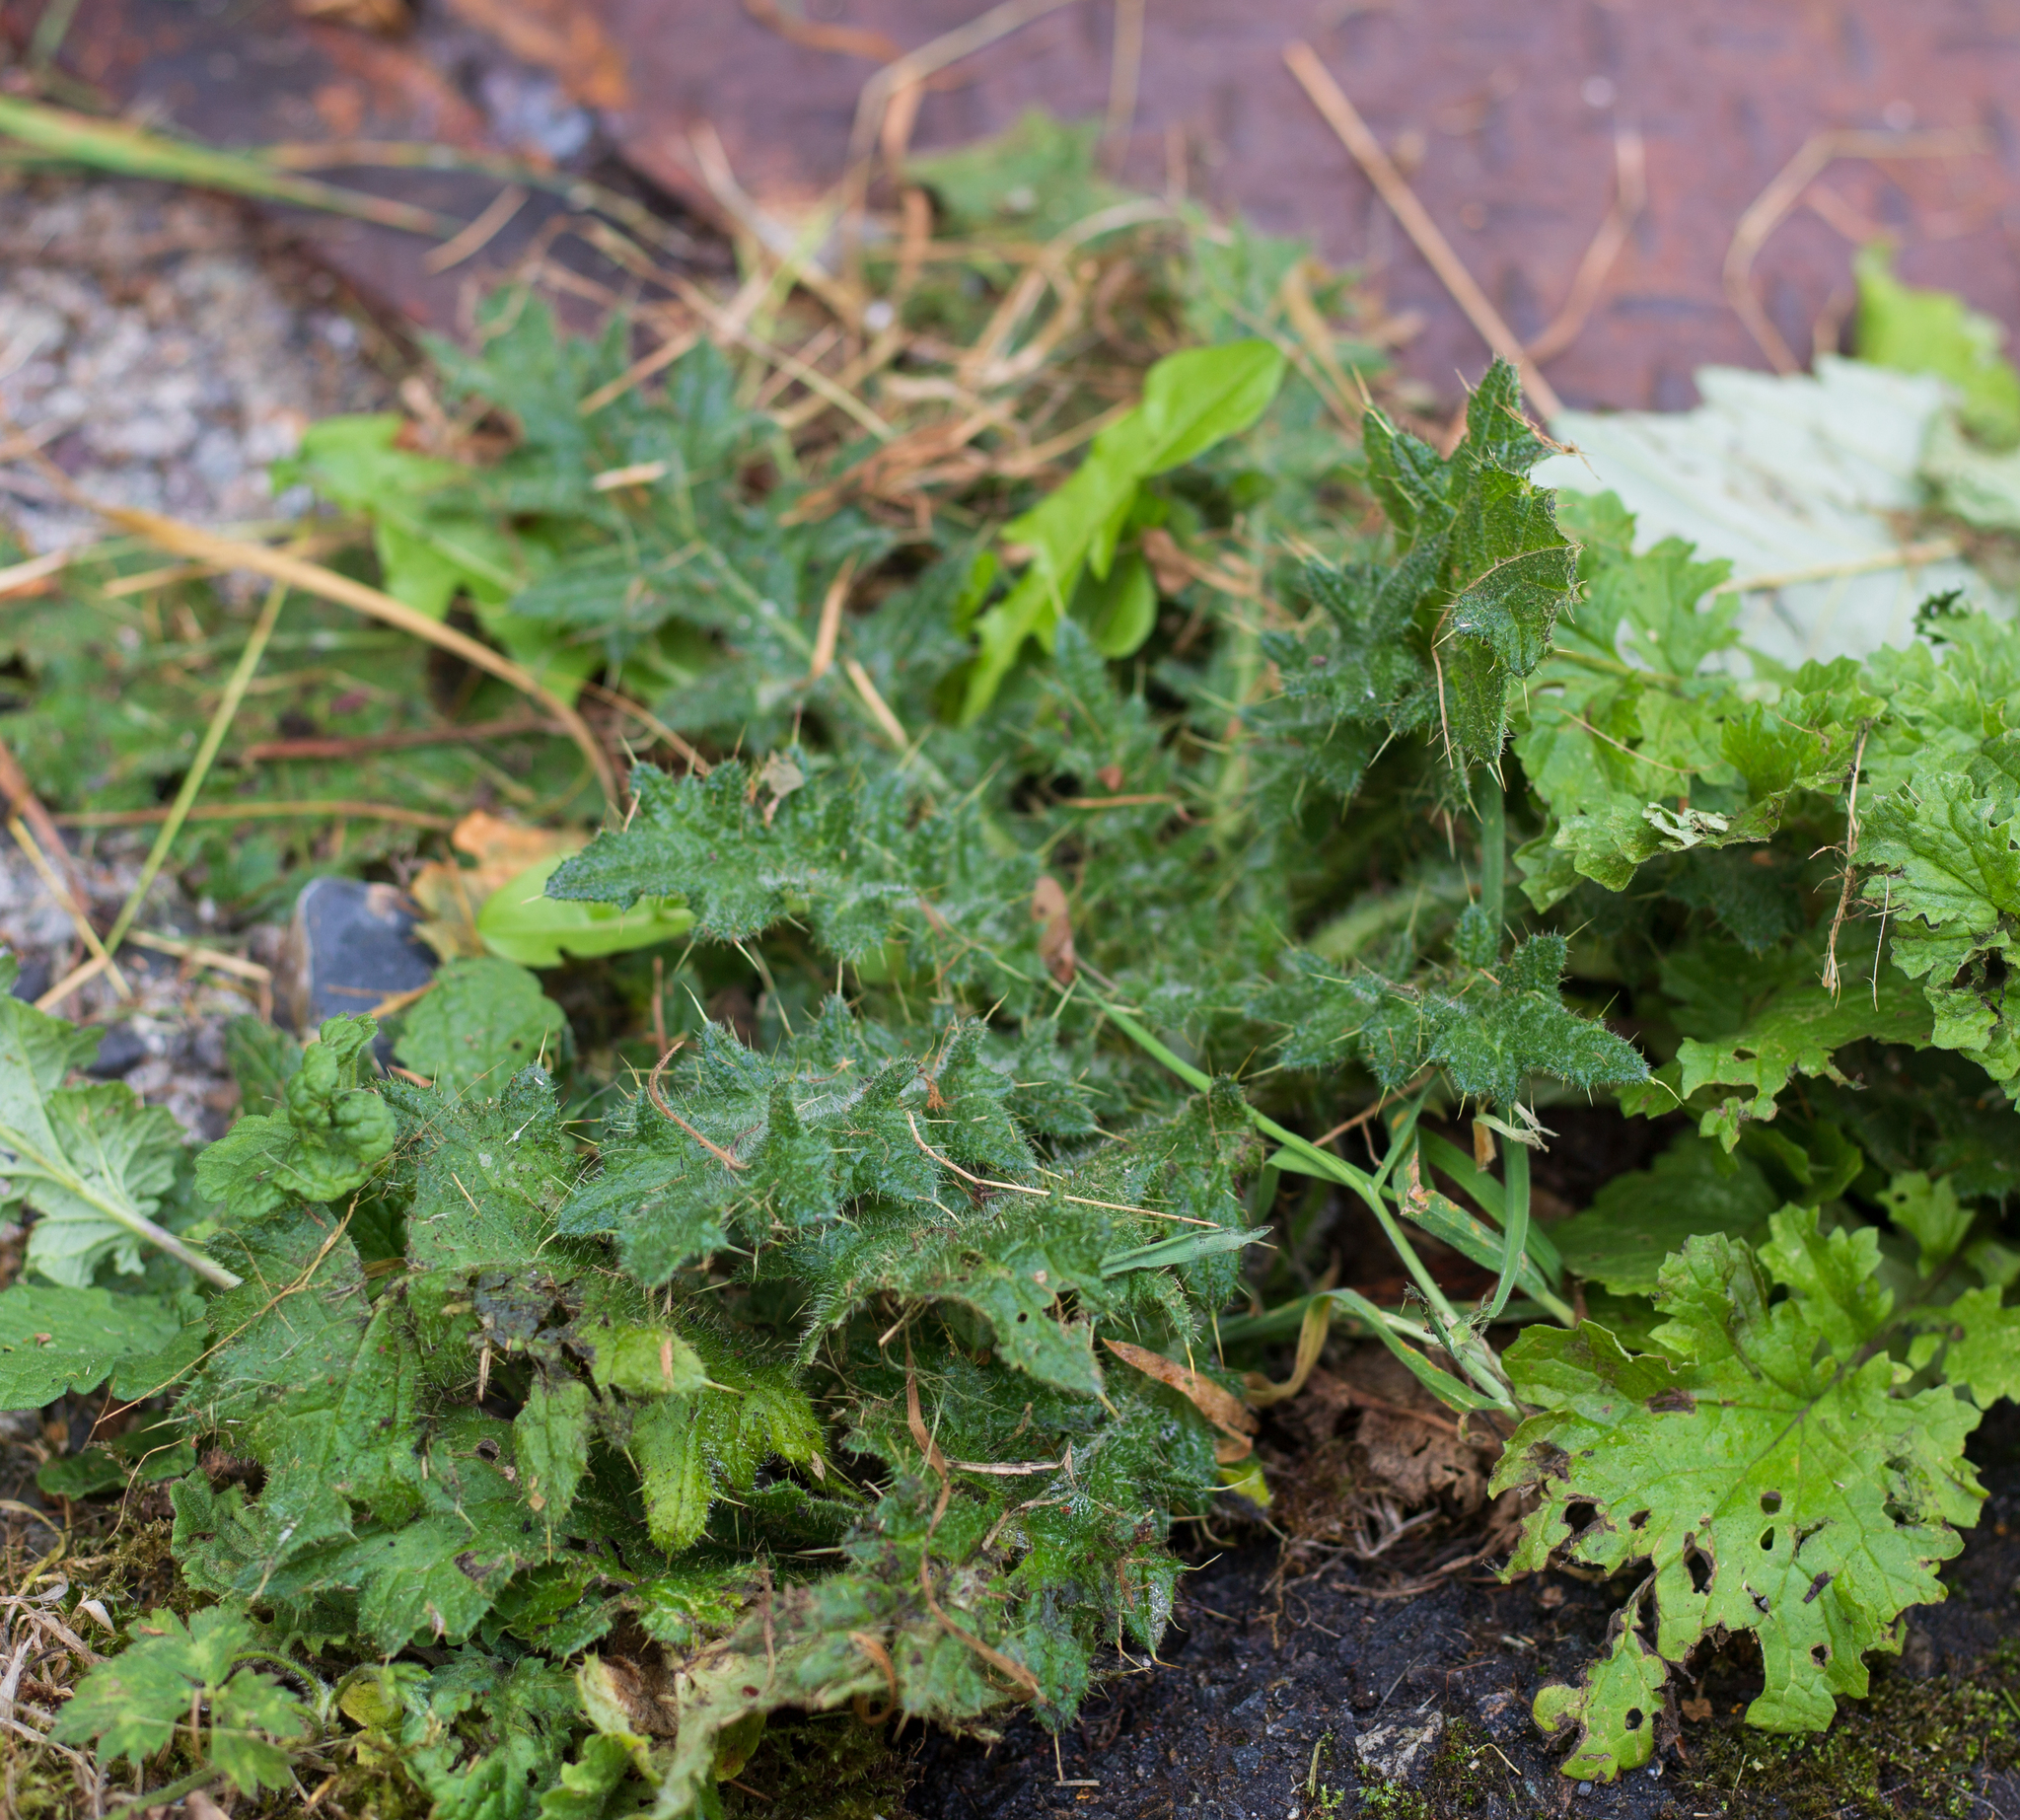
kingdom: Plantae
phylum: Tracheophyta
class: Magnoliopsida
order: Asterales
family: Asteraceae
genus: Cirsium
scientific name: Cirsium vulgare
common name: Bull thistle
